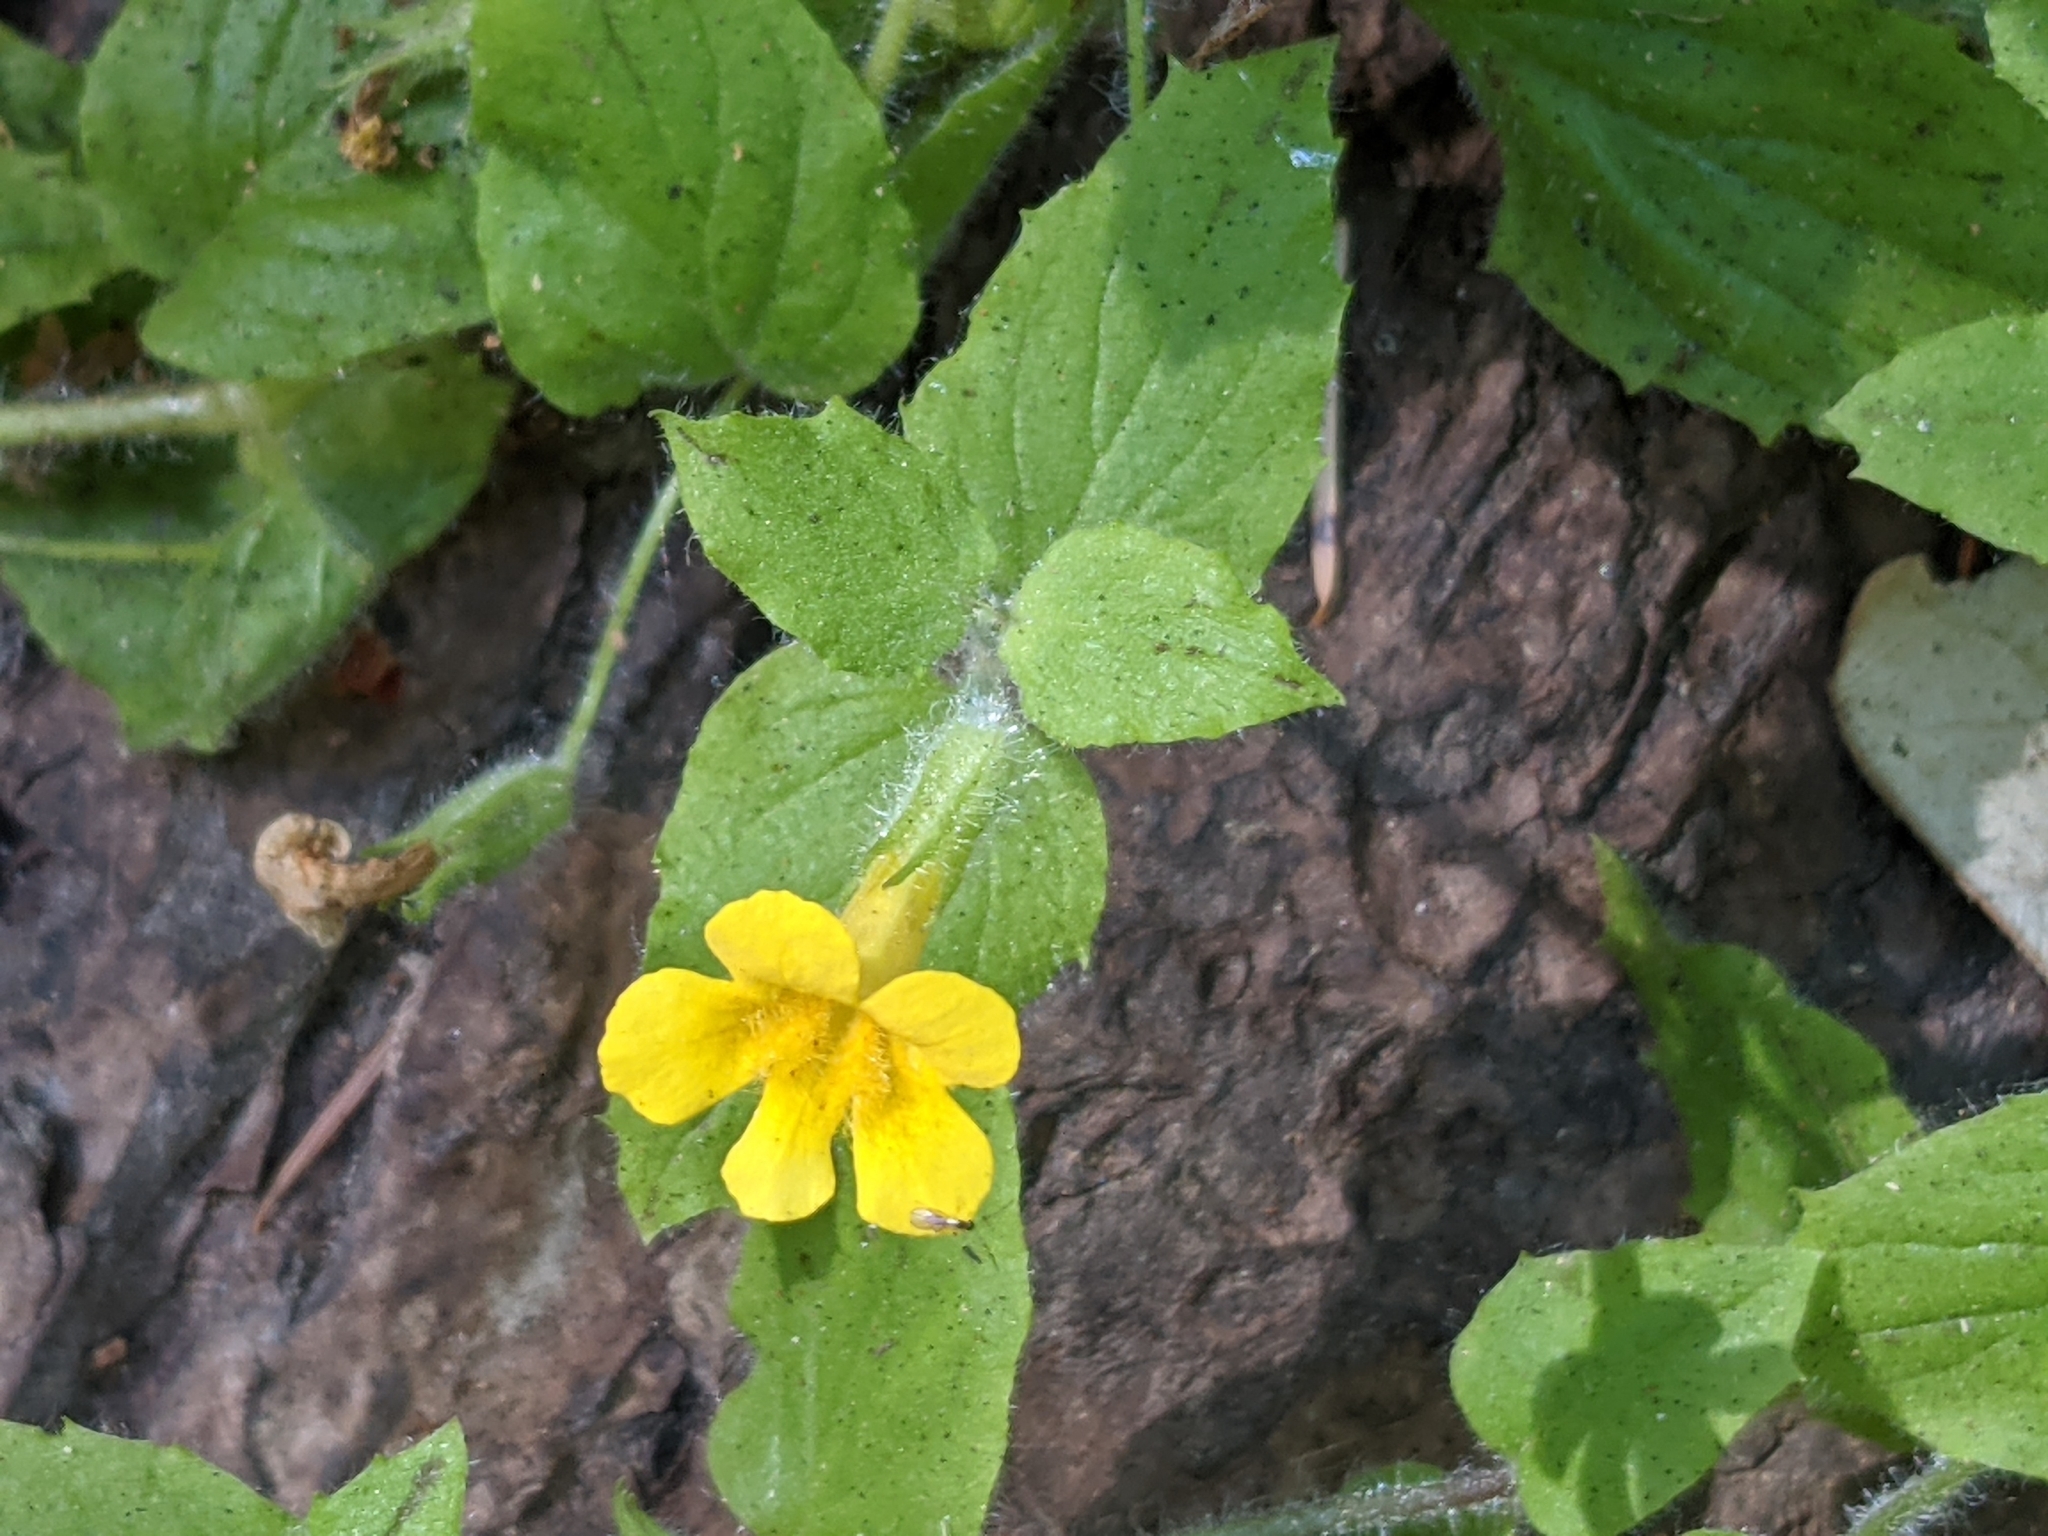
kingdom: Plantae
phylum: Tracheophyta
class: Magnoliopsida
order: Lamiales
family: Phrymaceae
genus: Erythranthe
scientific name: Erythranthe ptilota
